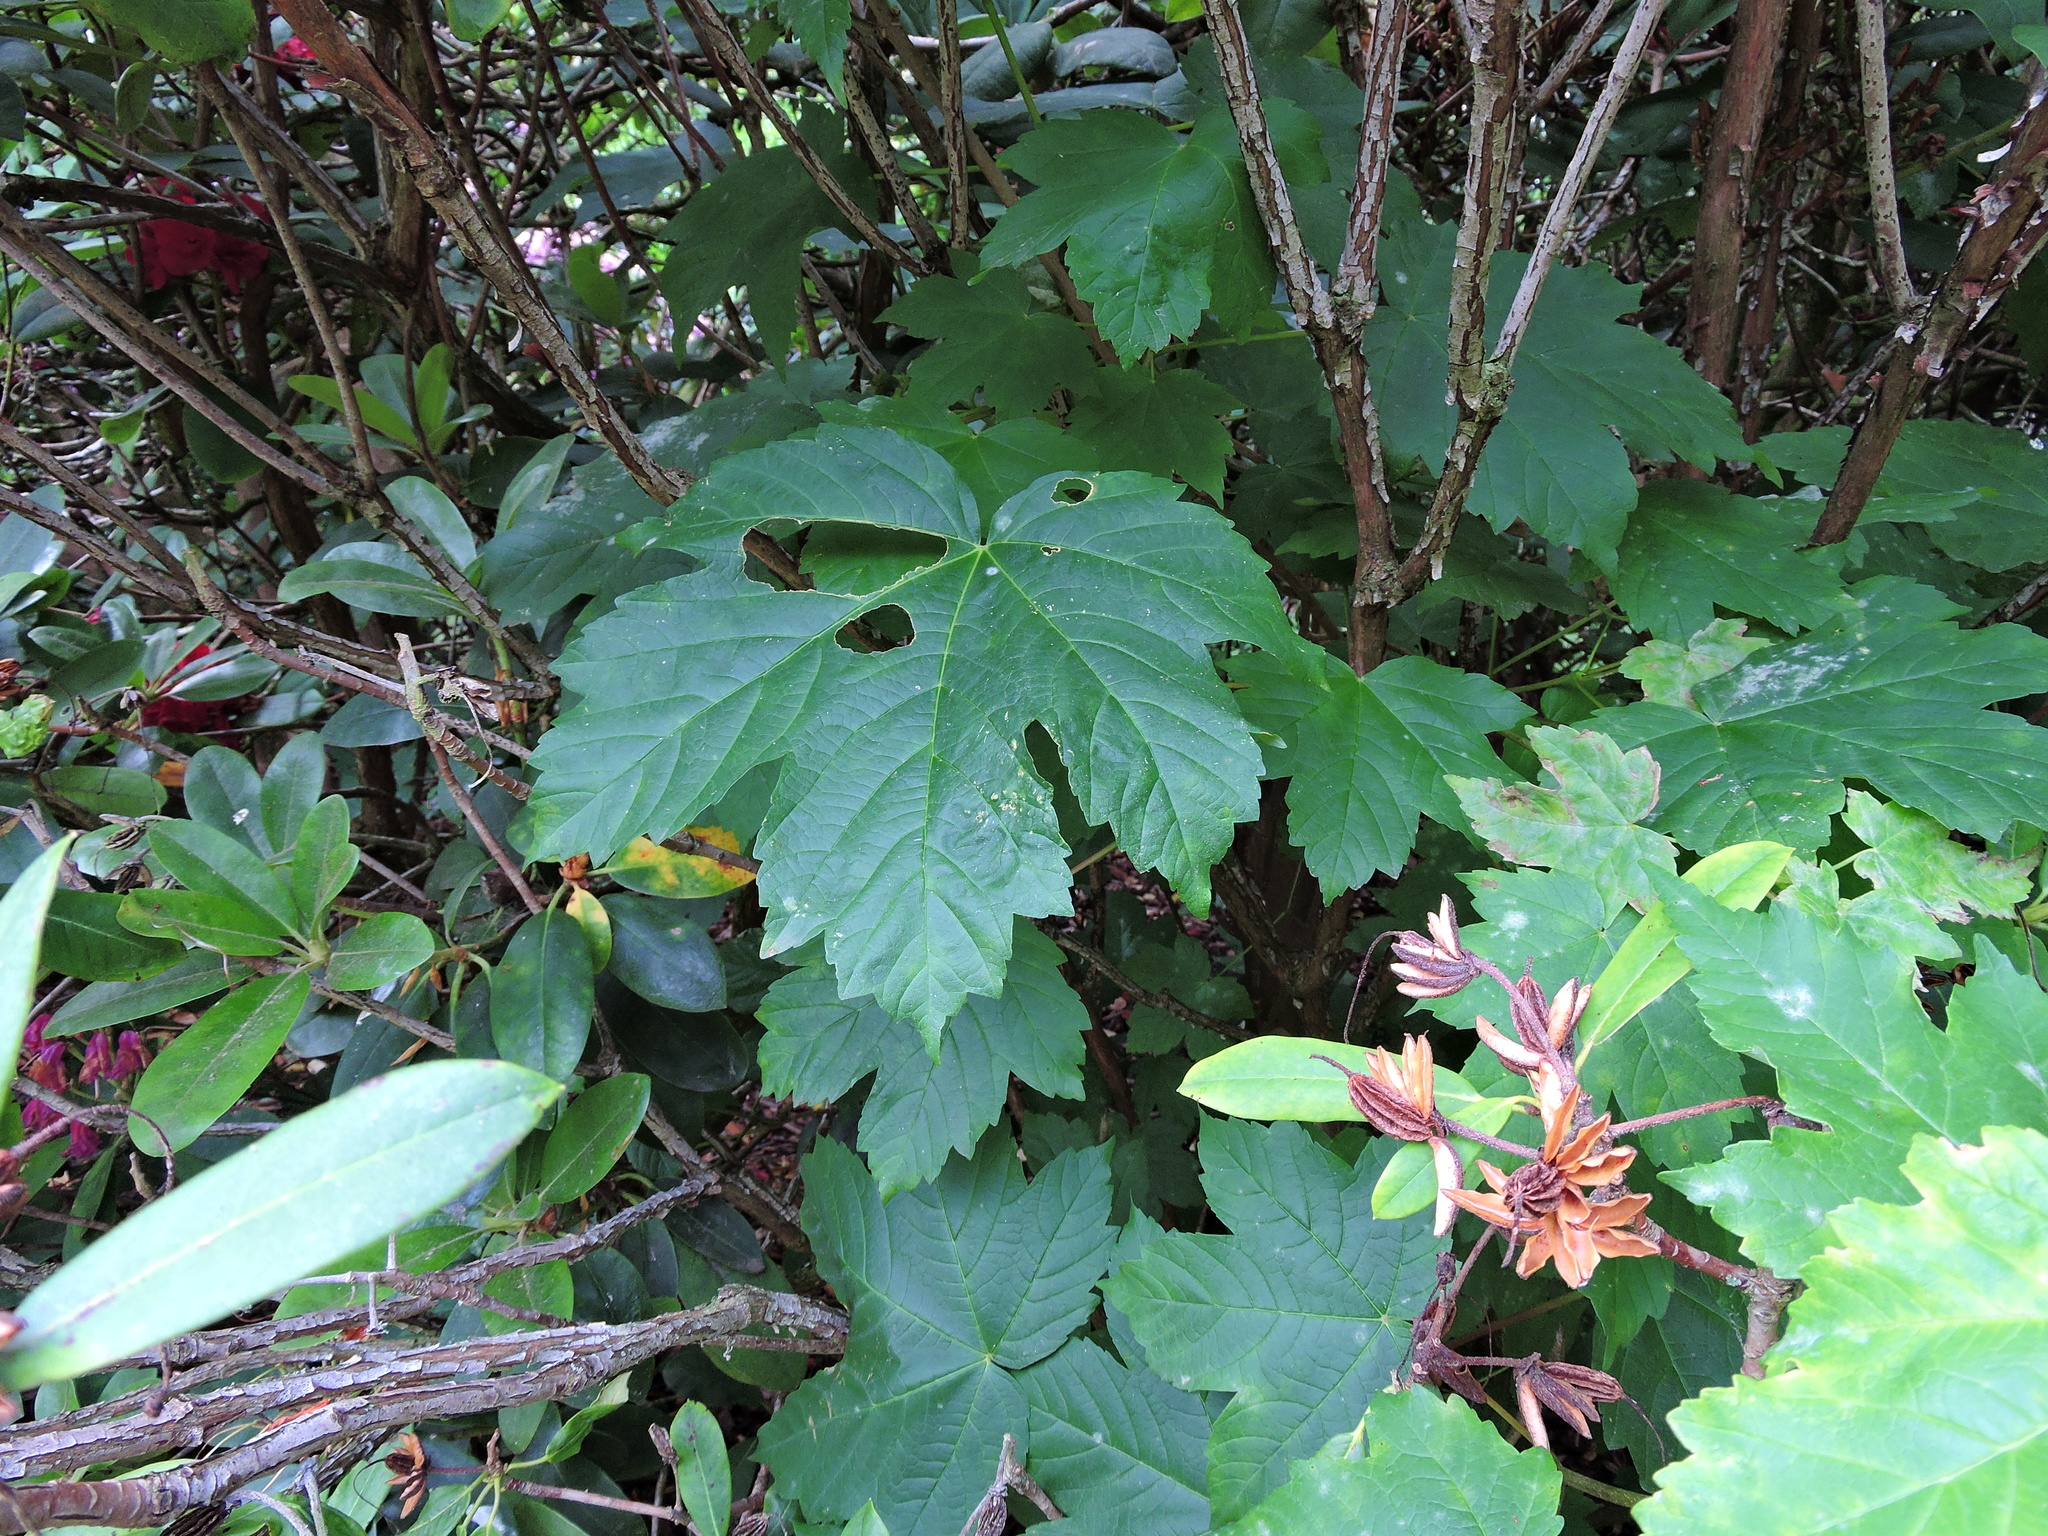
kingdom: Plantae
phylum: Tracheophyta
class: Magnoliopsida
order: Sapindales
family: Sapindaceae
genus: Acer
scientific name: Acer pseudoplatanus
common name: Sycamore
